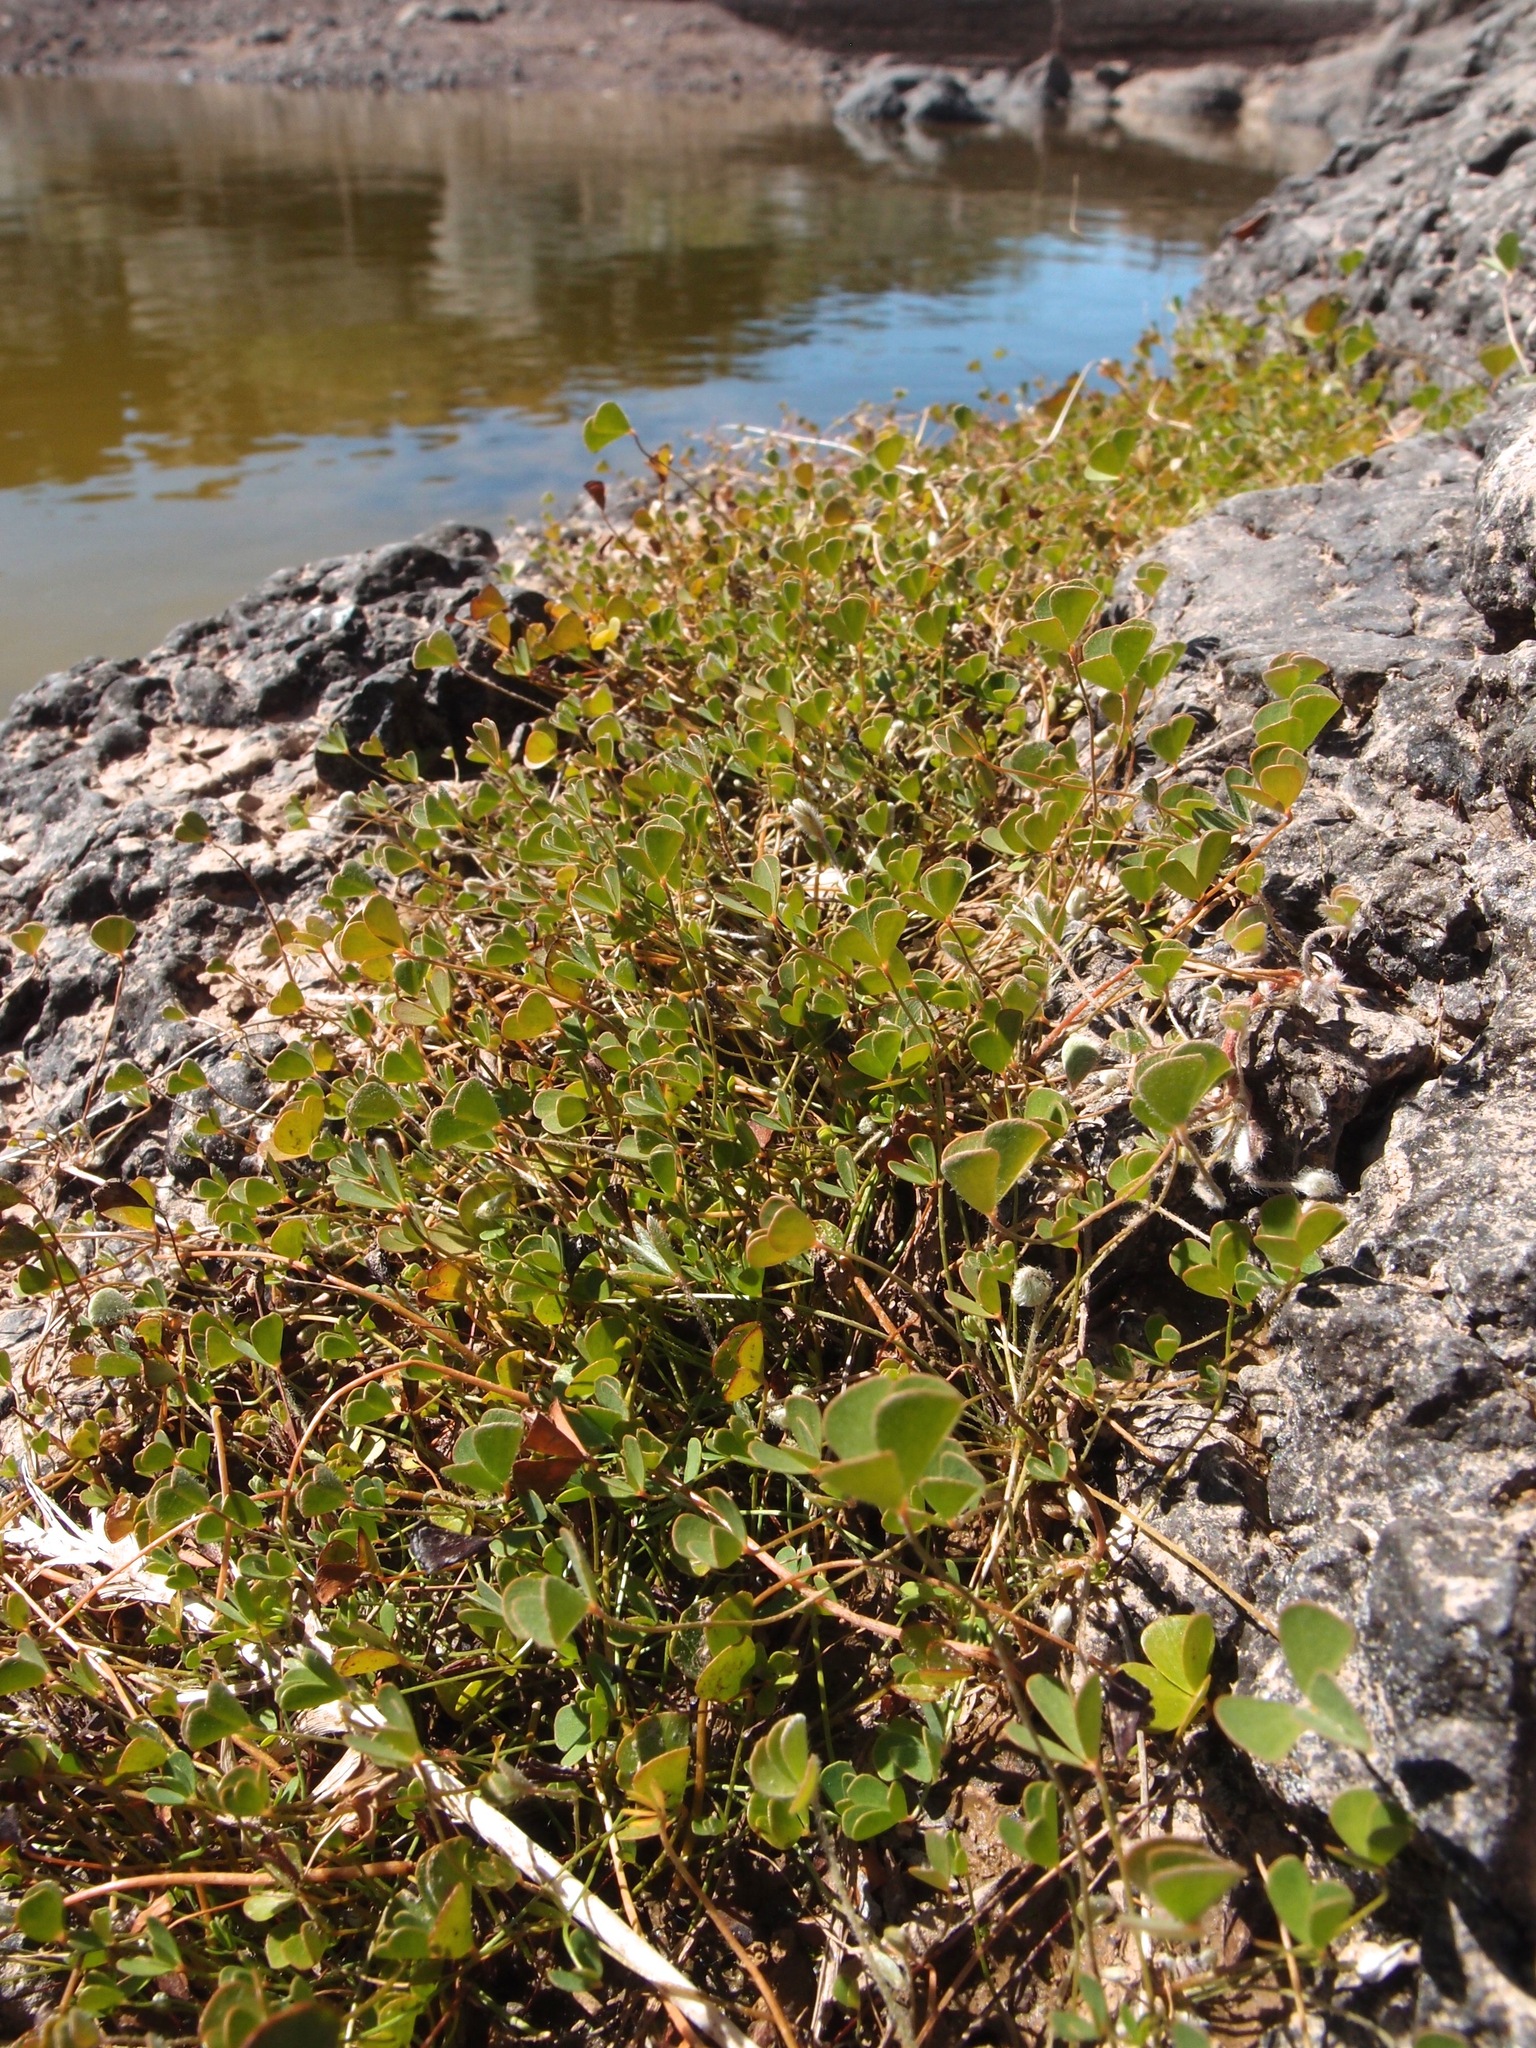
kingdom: Plantae
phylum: Tracheophyta
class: Polypodiopsida
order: Salviniales
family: Marsileaceae
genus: Marsilea
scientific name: Marsilea vestita
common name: Hooked-pepperwort
